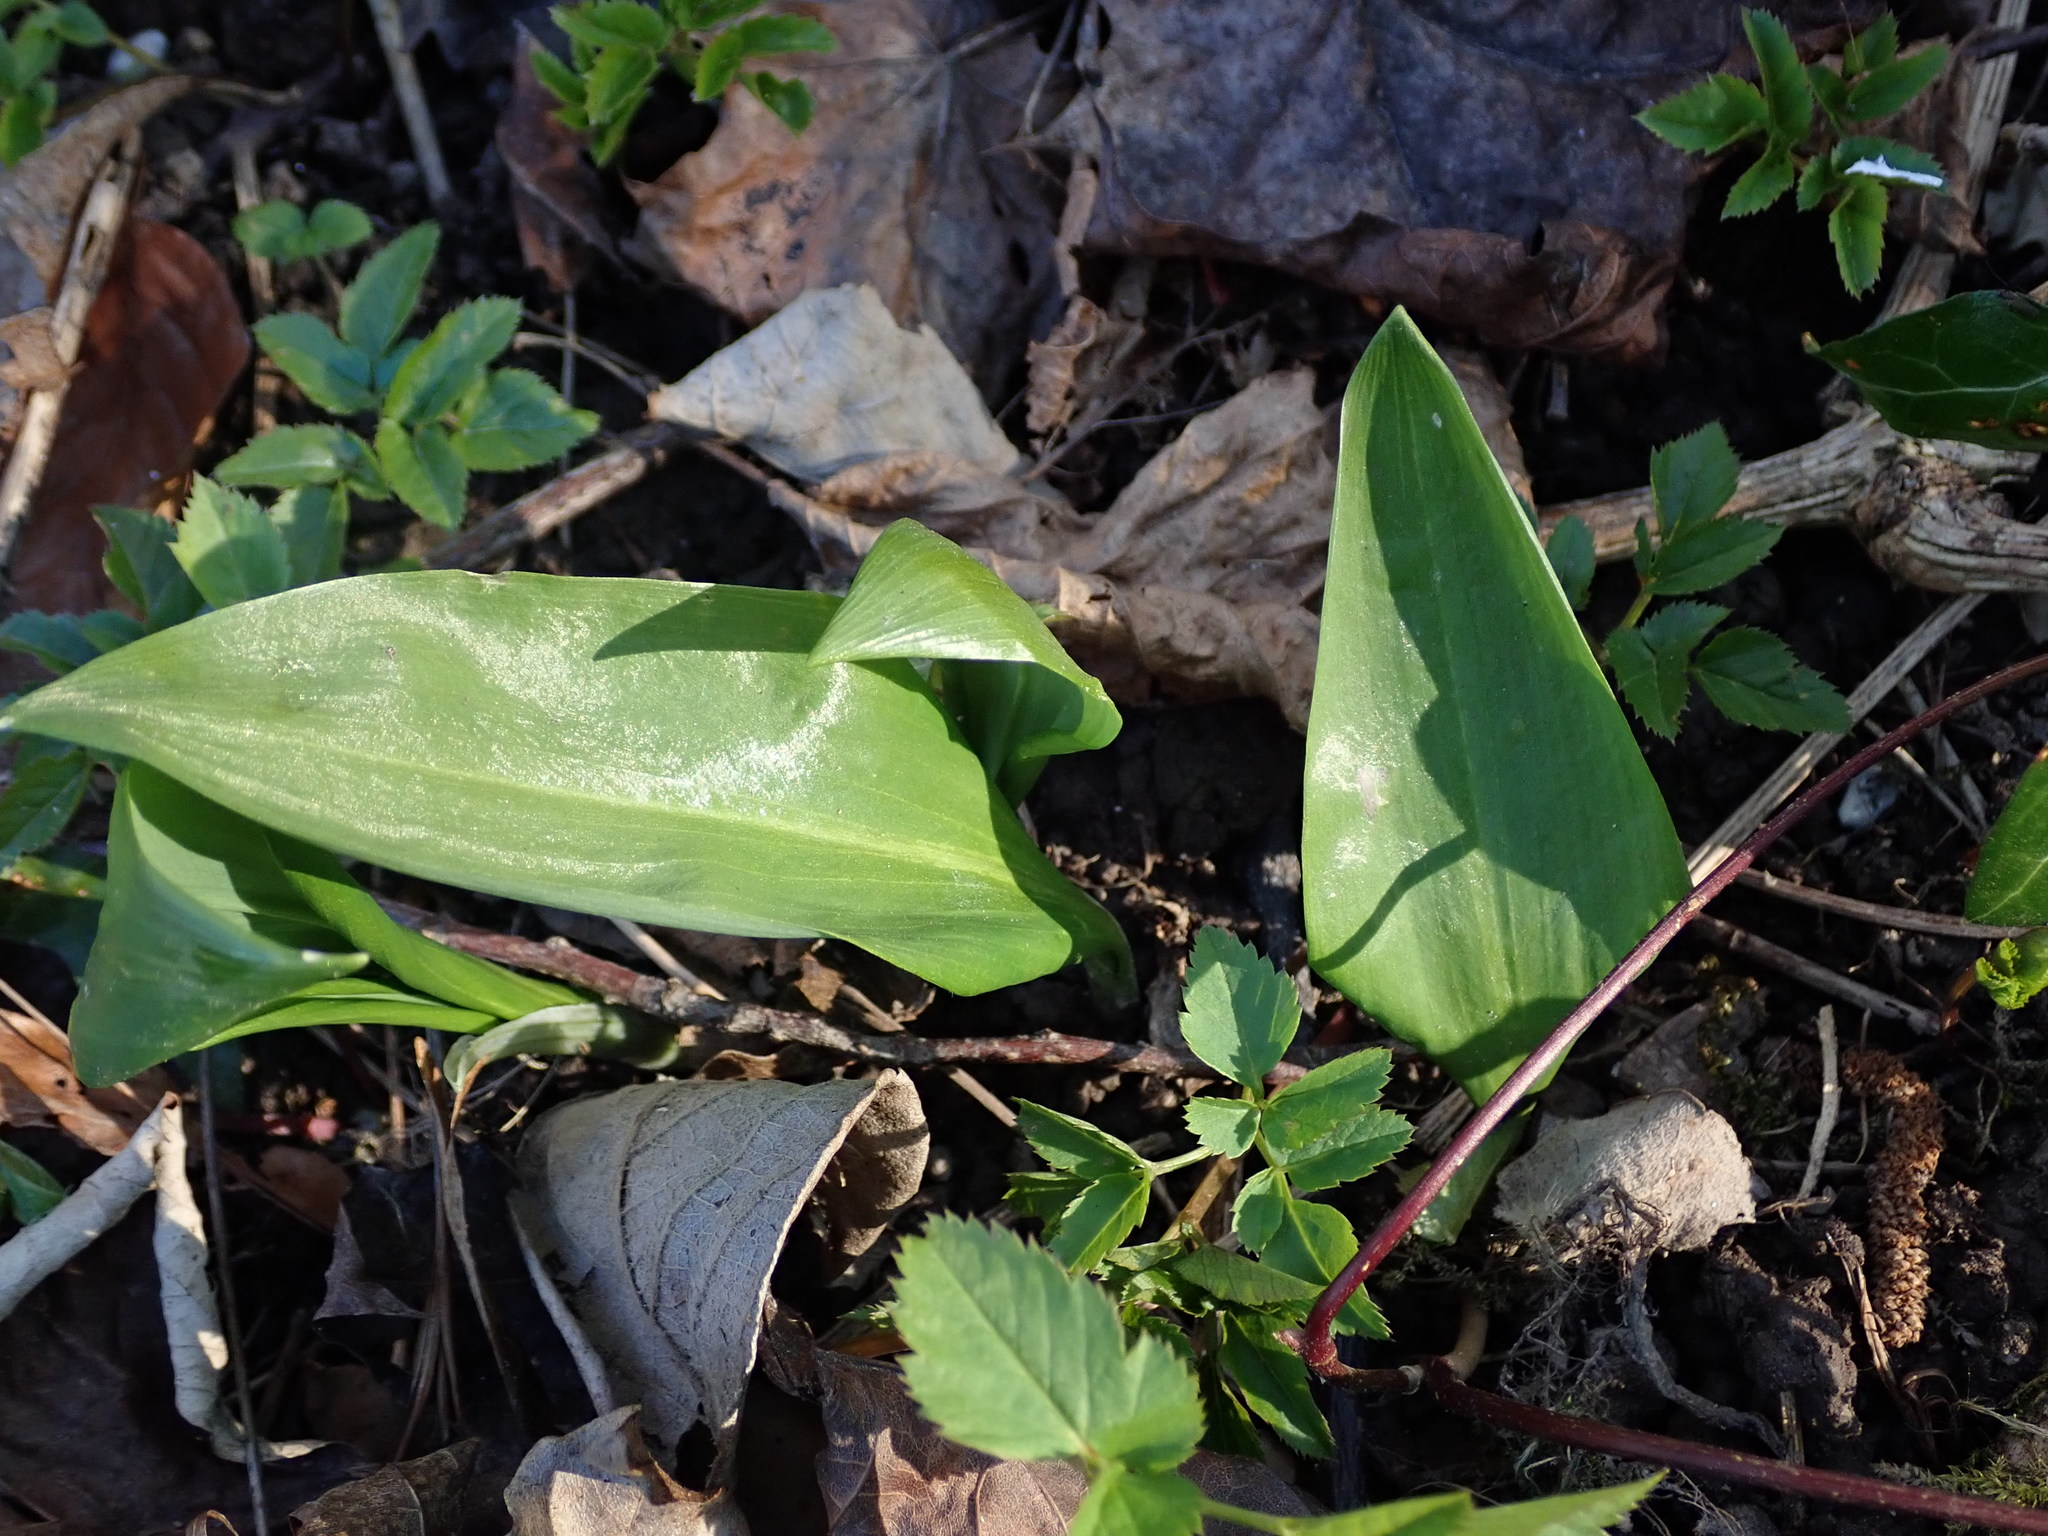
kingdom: Plantae
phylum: Tracheophyta
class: Liliopsida
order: Asparagales
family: Amaryllidaceae
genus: Allium
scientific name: Allium ursinum
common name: Ramsons
